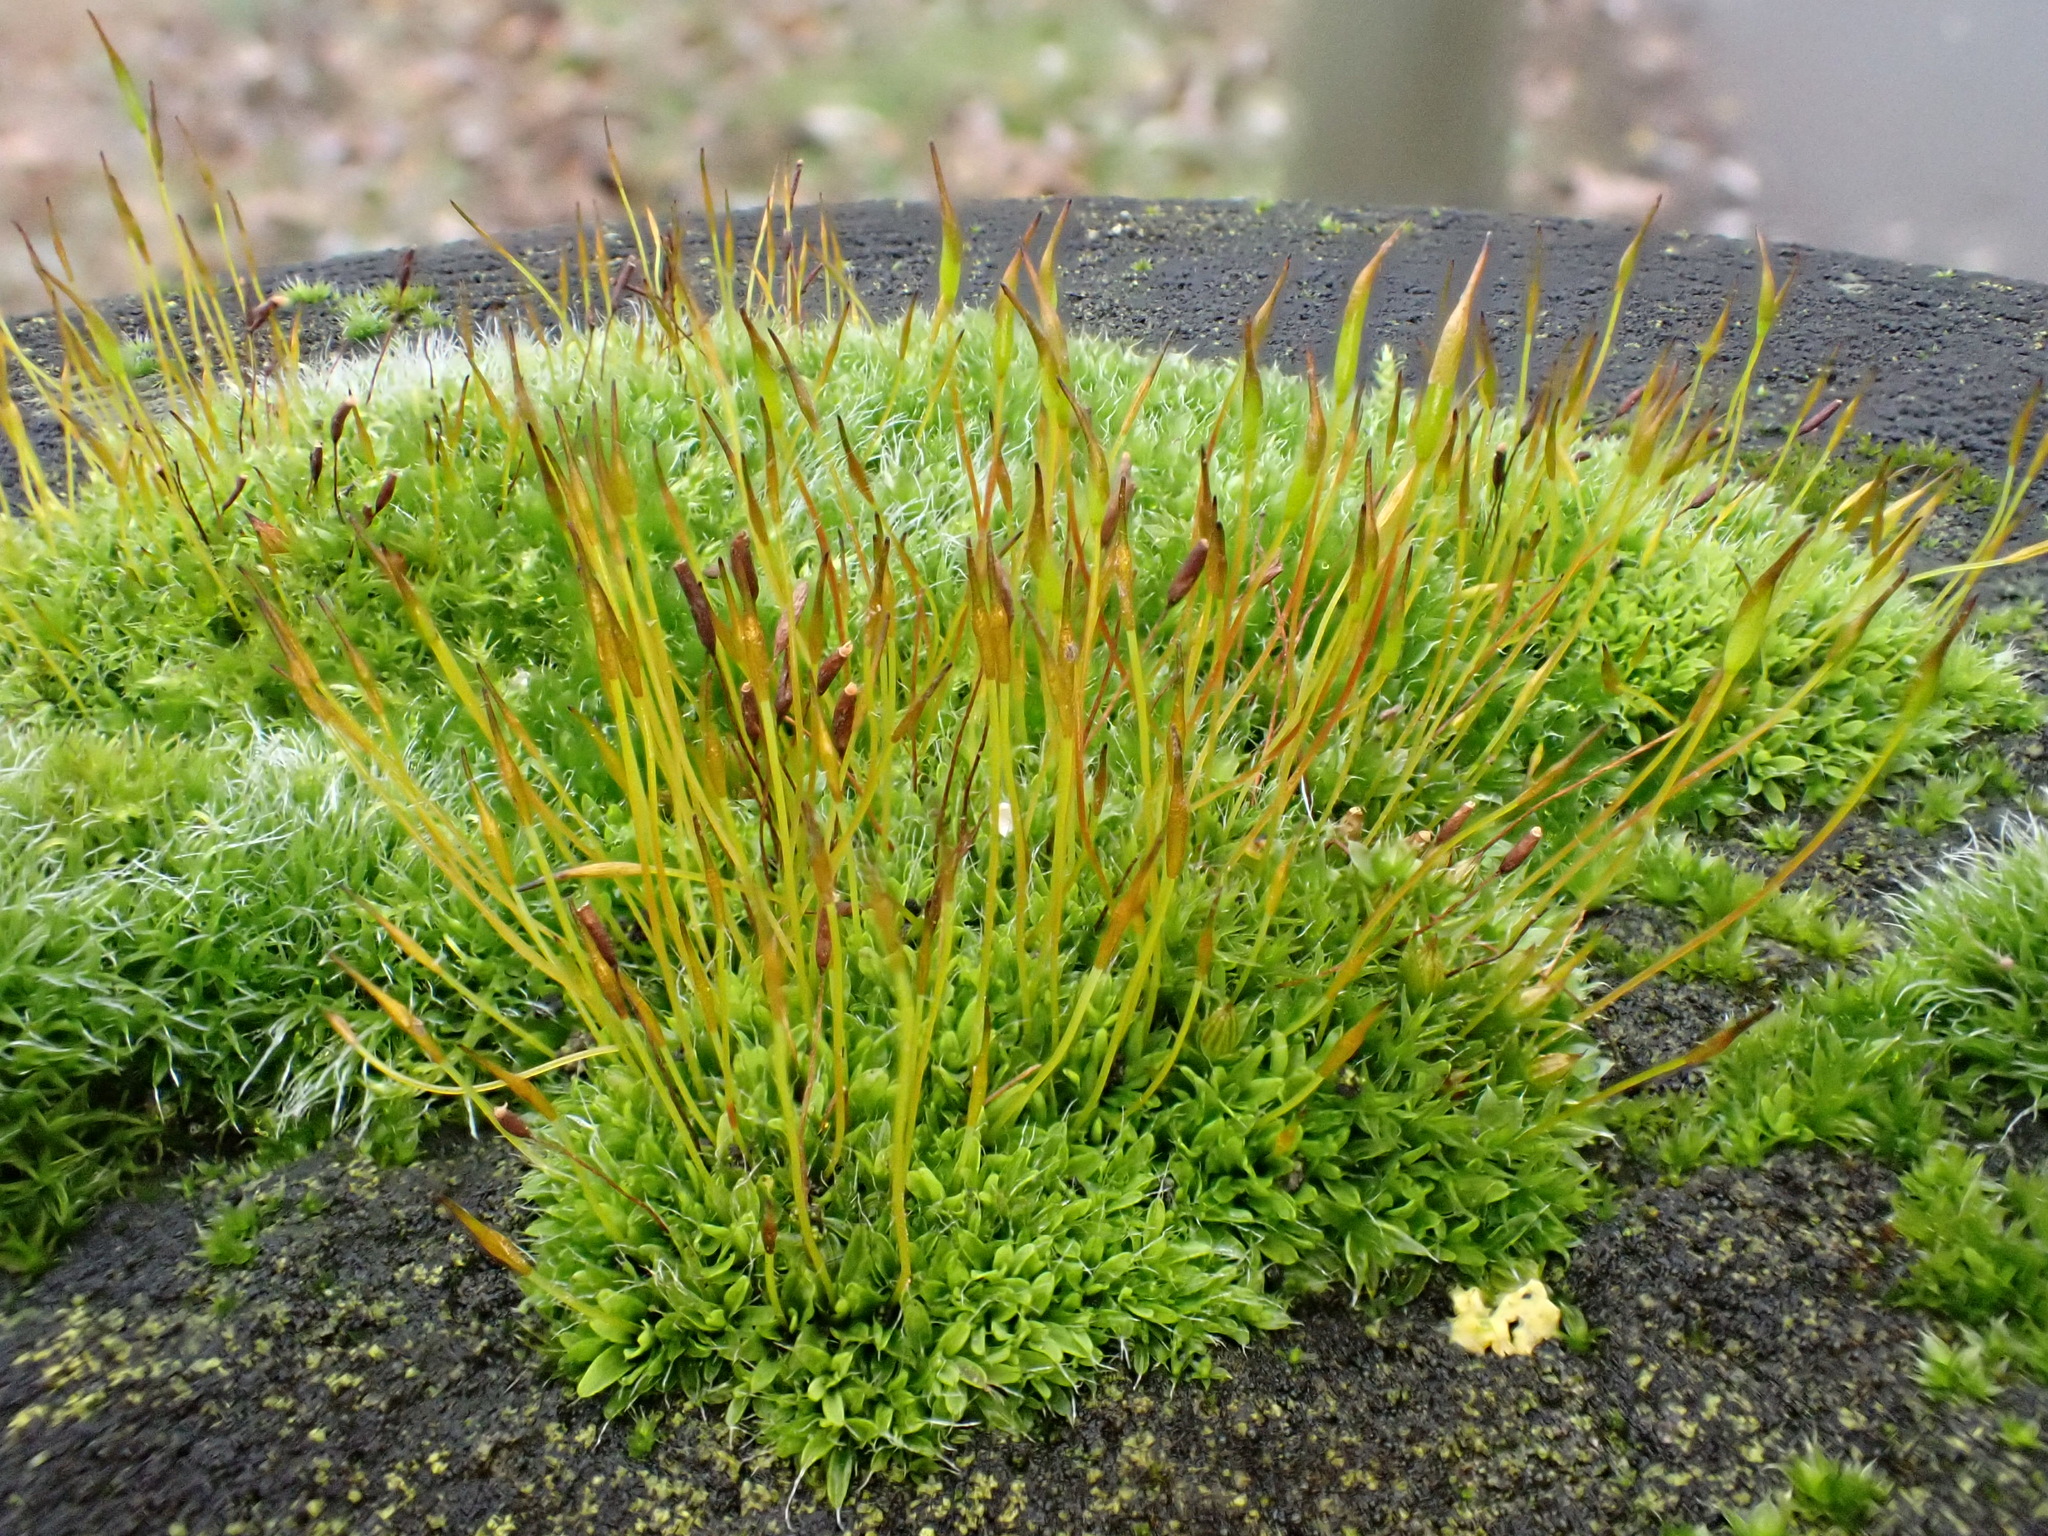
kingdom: Plantae
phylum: Bryophyta
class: Bryopsida
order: Pottiales
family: Pottiaceae
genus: Tortula
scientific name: Tortula muralis
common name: Wall screw-moss
